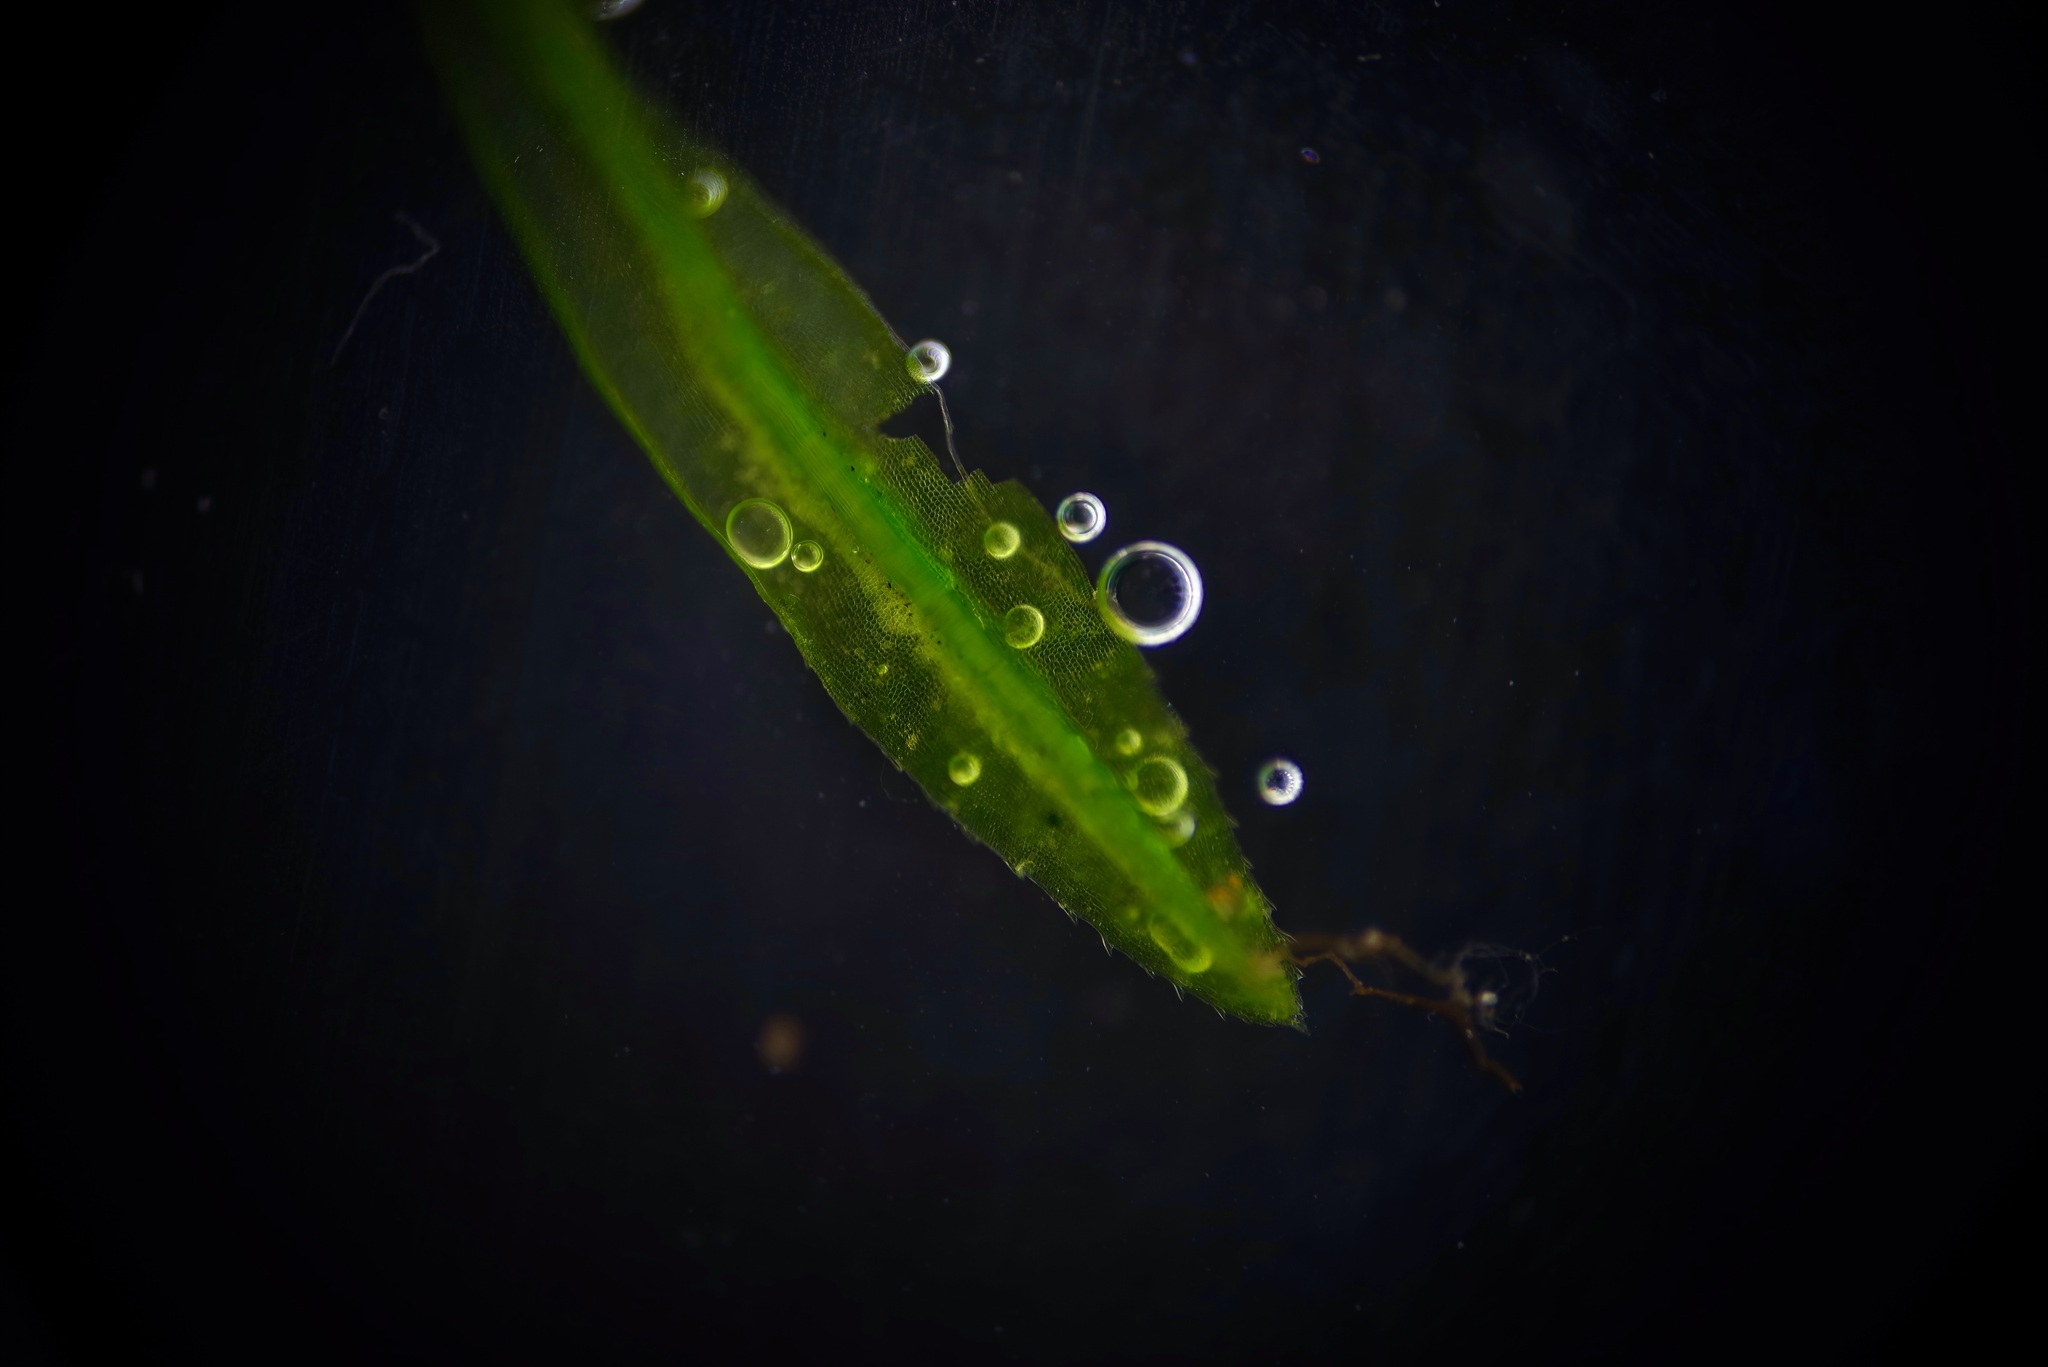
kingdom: Plantae
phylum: Bryophyta
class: Polytrichopsida
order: Polytrichales
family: Polytrichaceae
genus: Atrichum
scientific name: Atrichum angustatum
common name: Lesser smoothcap
